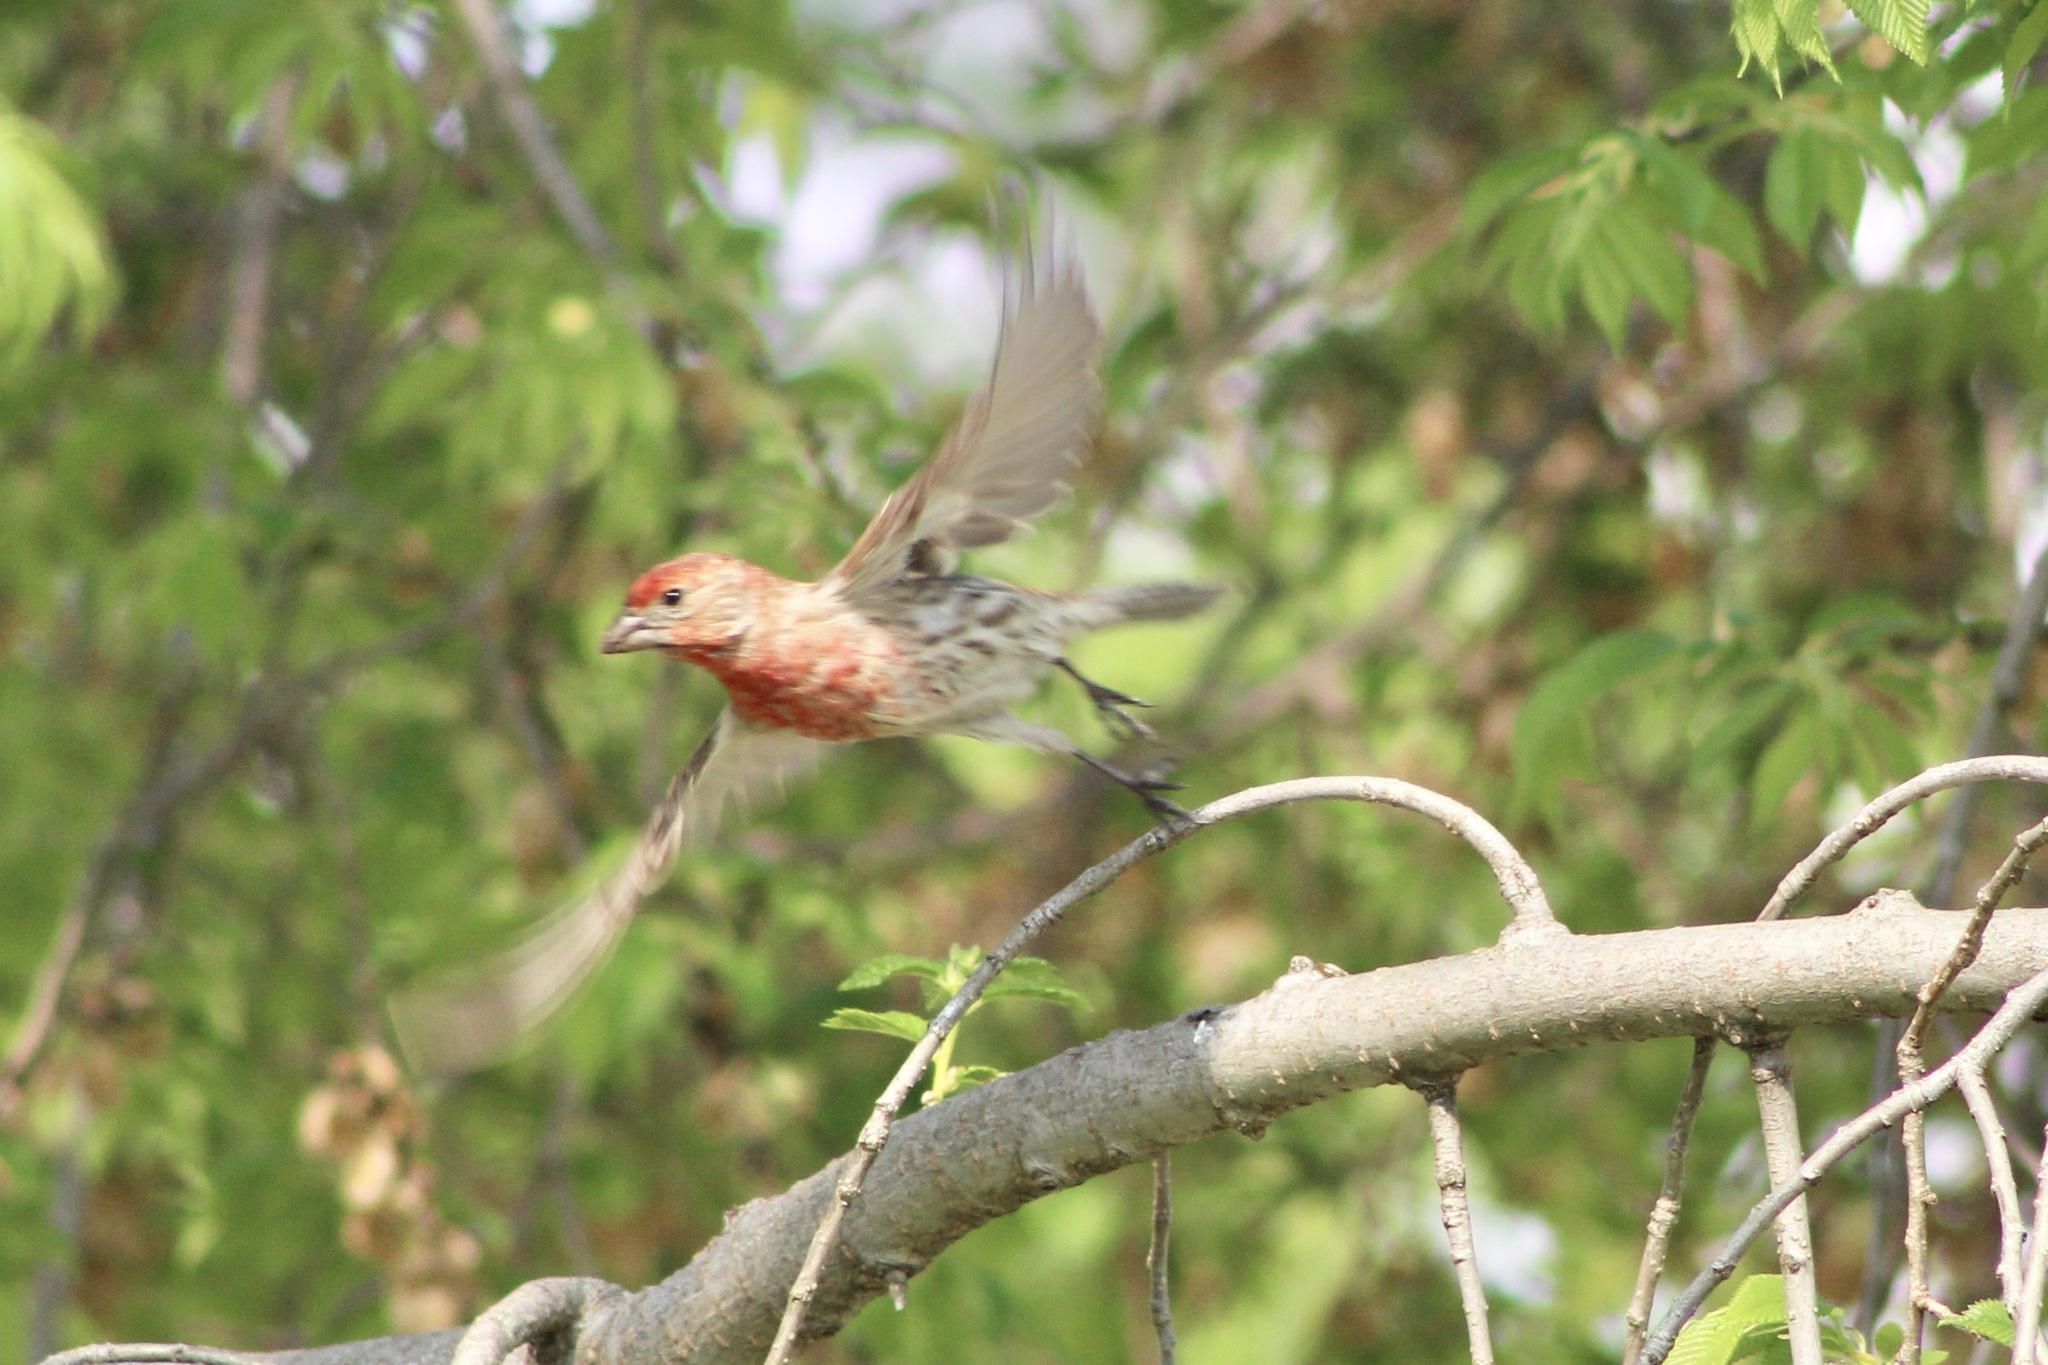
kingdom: Animalia
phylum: Chordata
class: Aves
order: Passeriformes
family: Fringillidae
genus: Haemorhous
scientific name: Haemorhous mexicanus
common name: House finch
